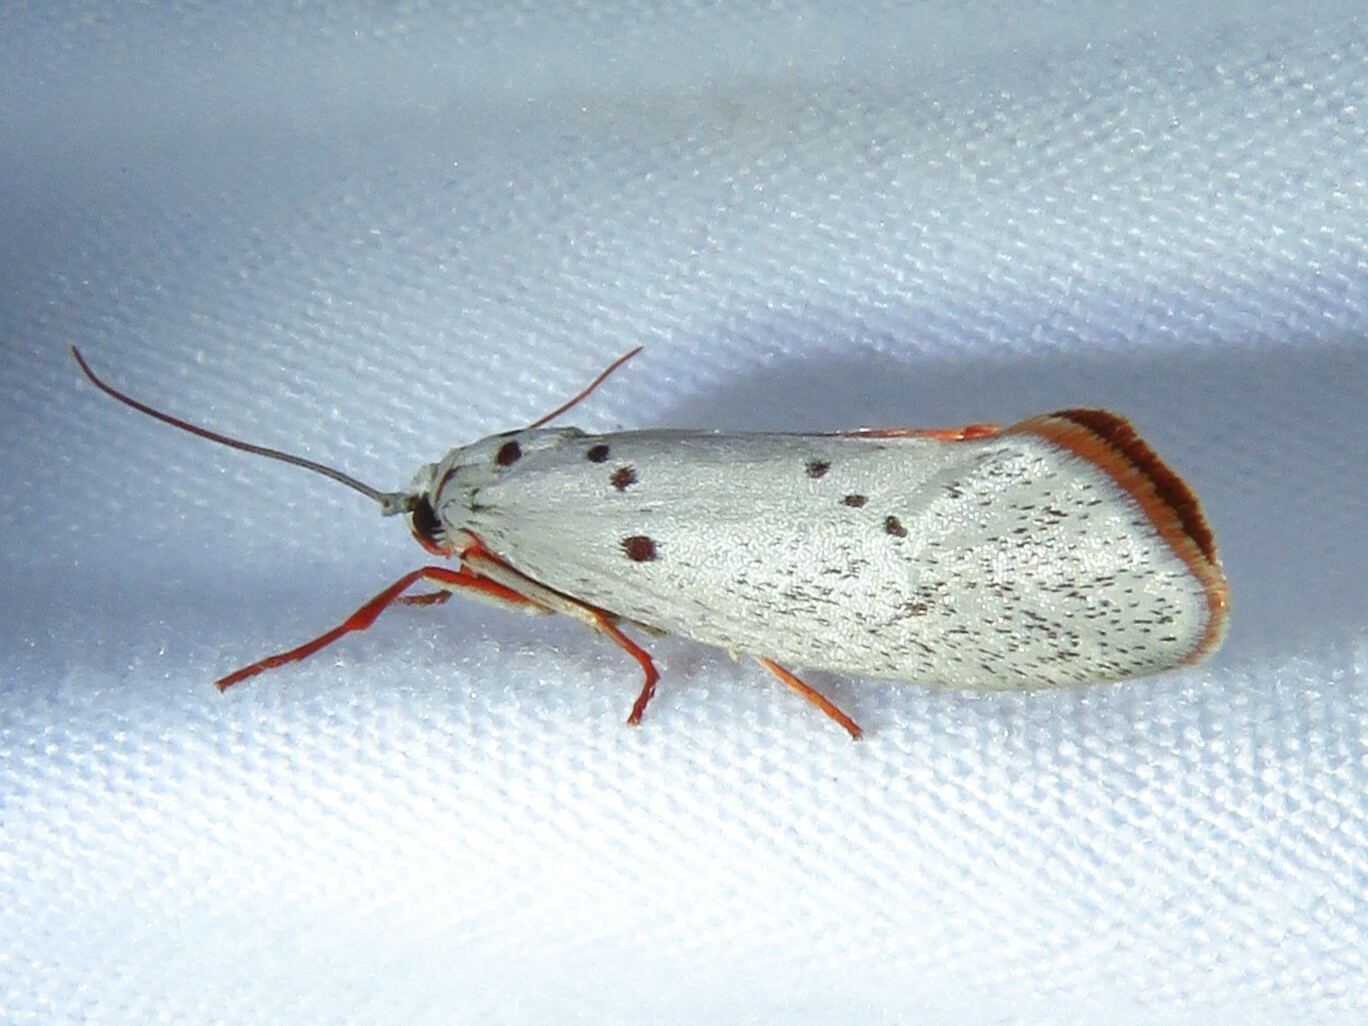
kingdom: Animalia
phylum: Arthropoda
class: Insecta
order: Lepidoptera
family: Lacturidae
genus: Lactura
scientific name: Lactura
